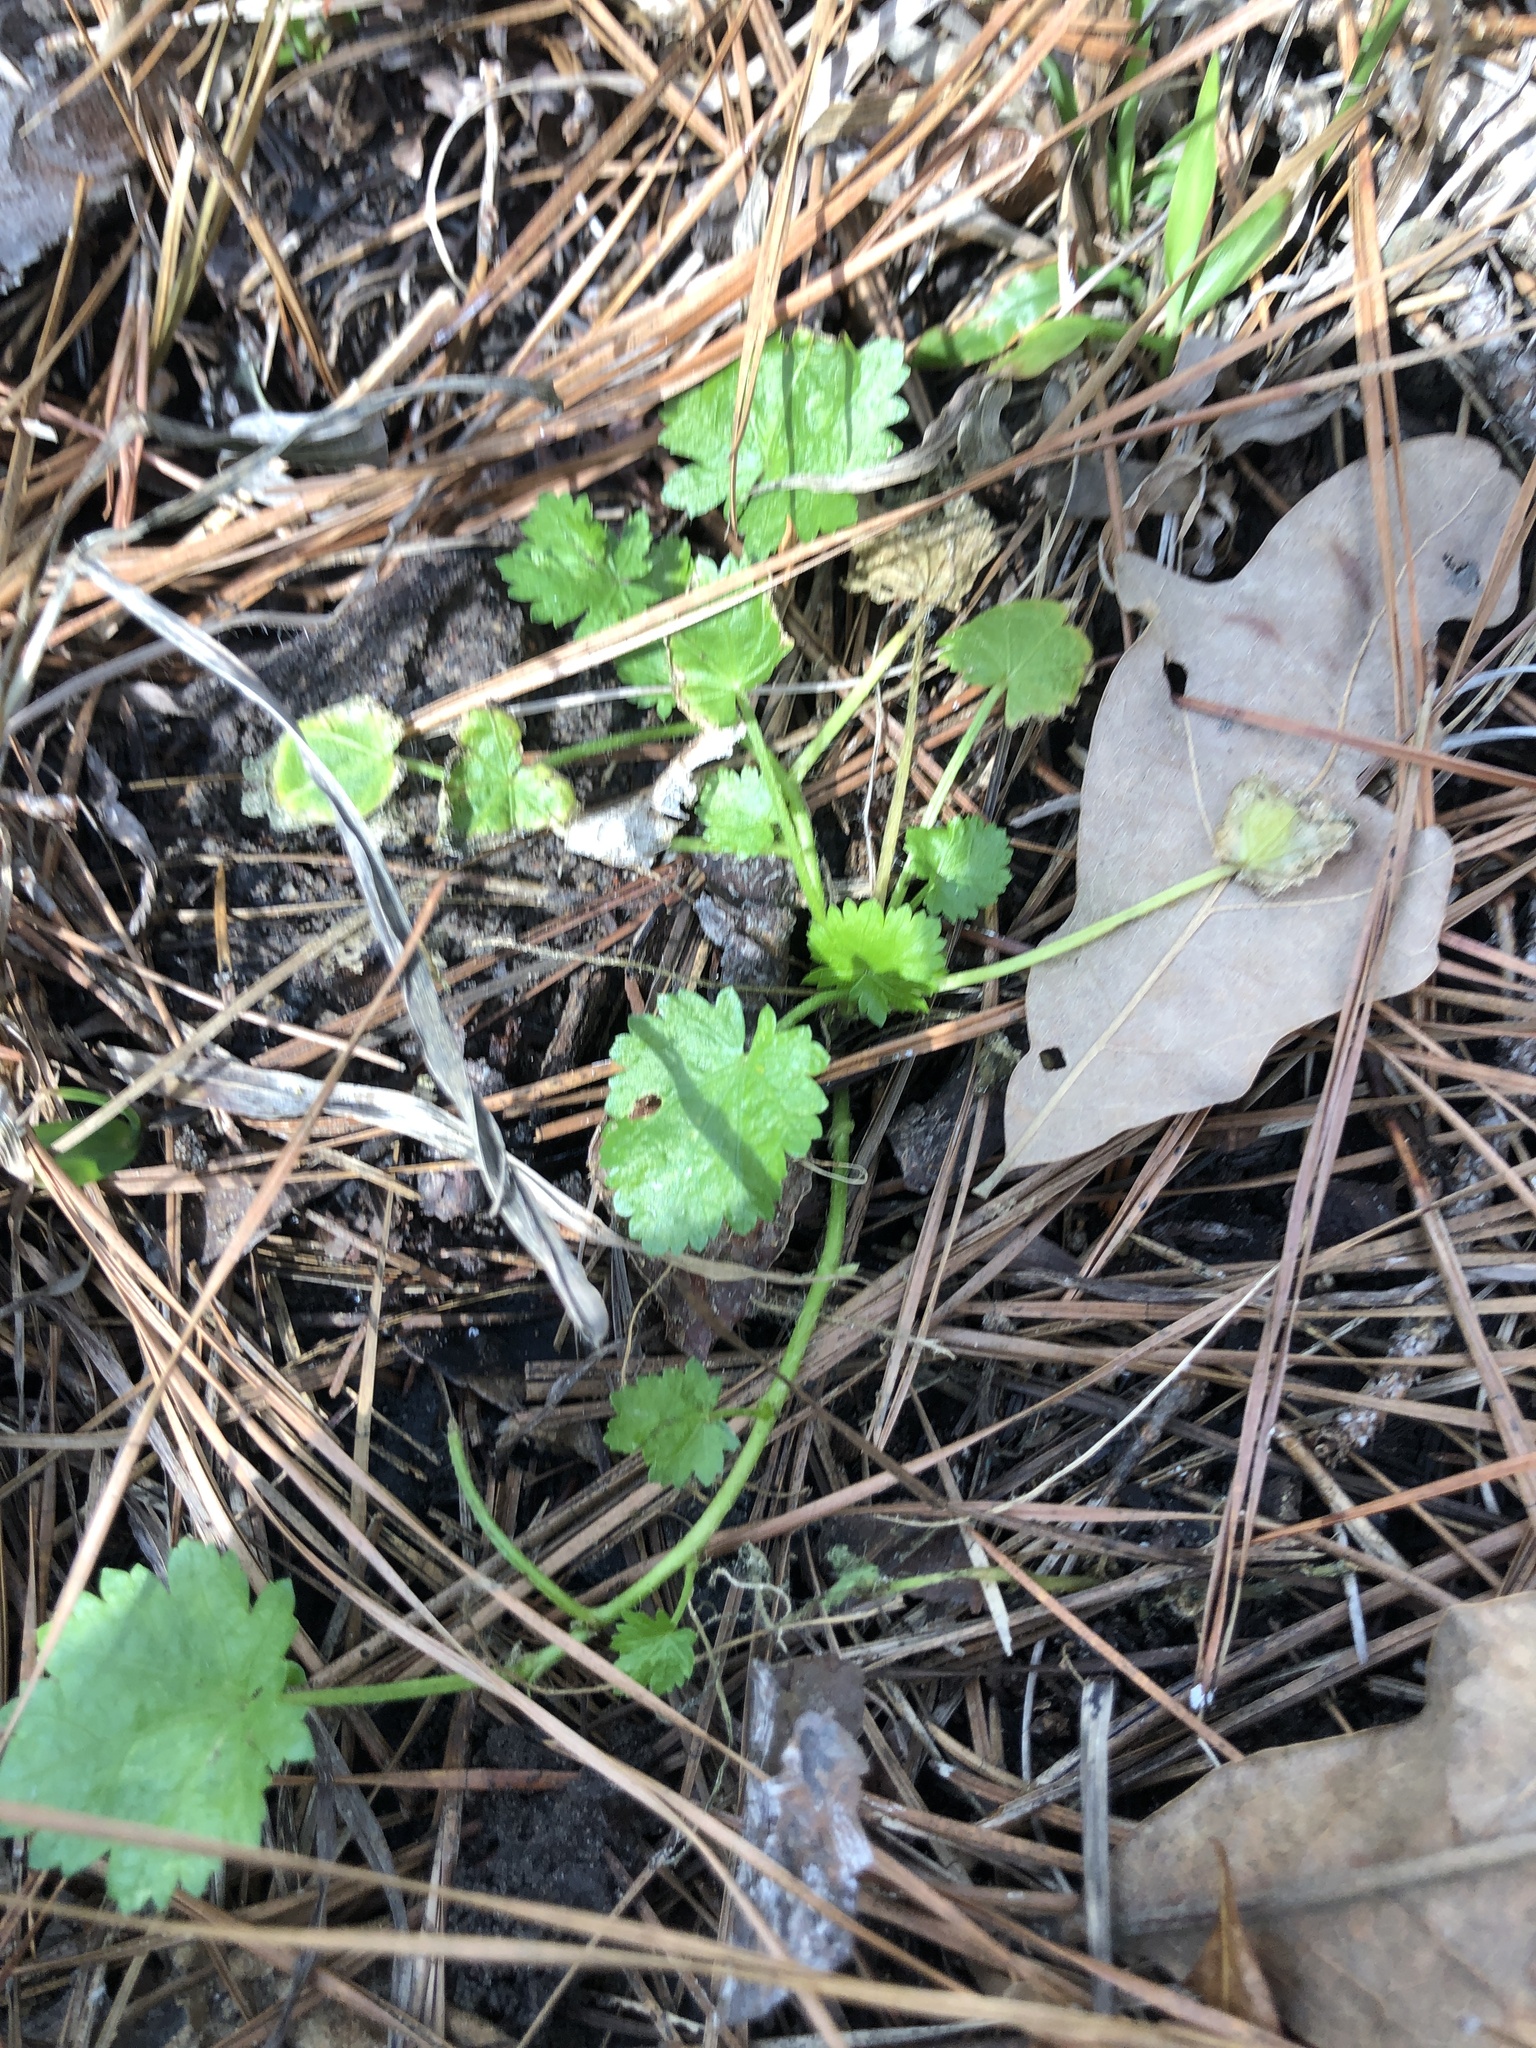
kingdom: Plantae
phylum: Tracheophyta
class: Magnoliopsida
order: Malvales
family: Malvaceae
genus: Modiola
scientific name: Modiola caroliniana
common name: Carolina bristlemallow
